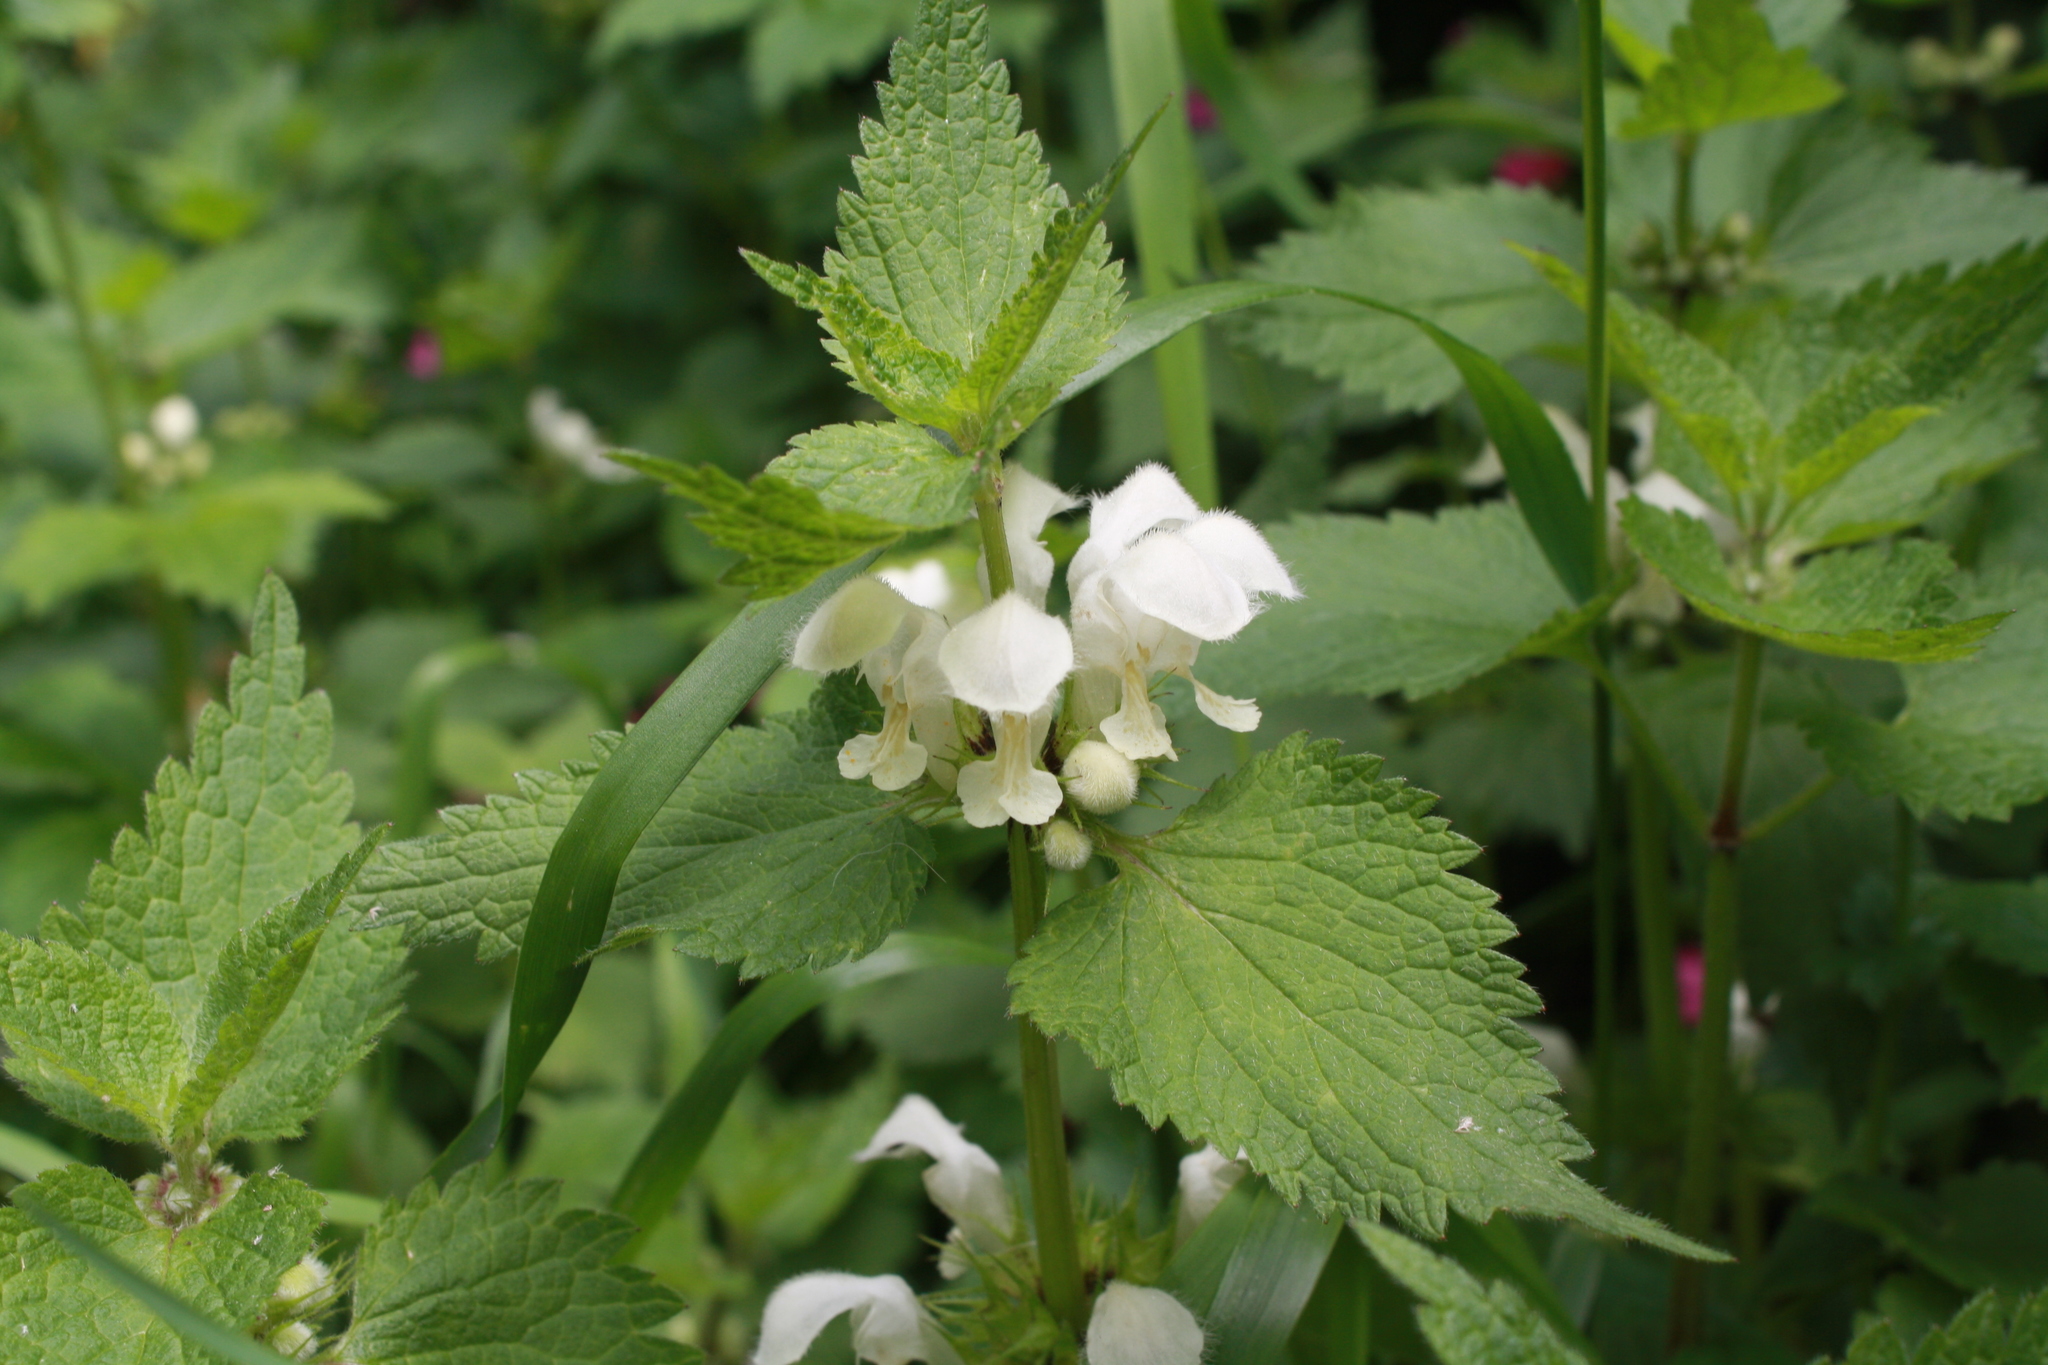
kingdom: Plantae
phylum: Tracheophyta
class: Magnoliopsida
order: Lamiales
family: Lamiaceae
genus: Lamium
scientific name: Lamium album
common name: White dead-nettle
